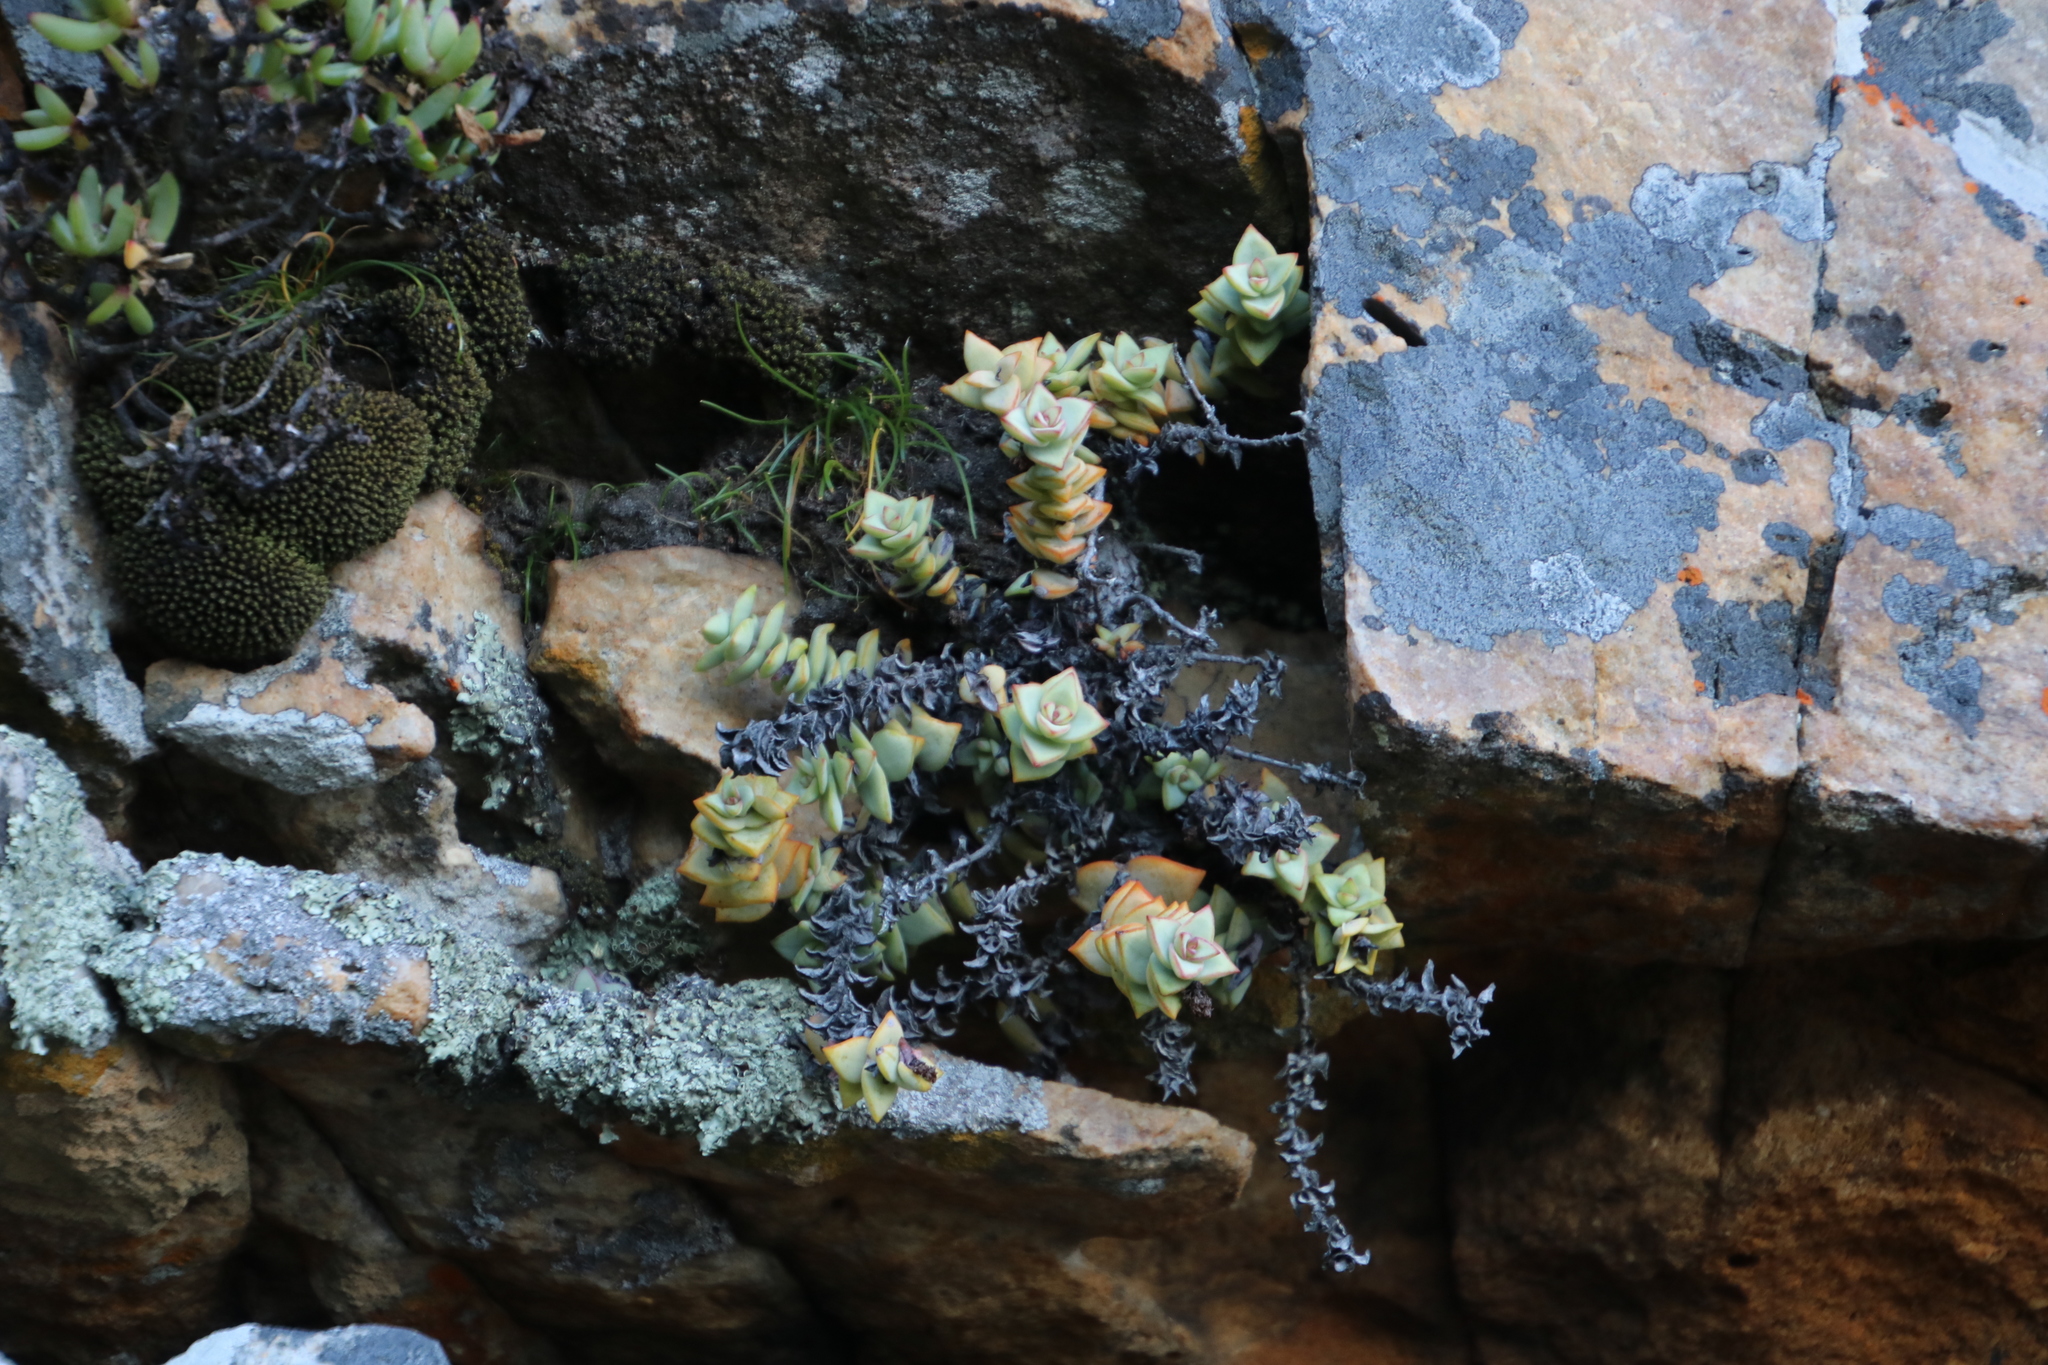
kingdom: Plantae
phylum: Tracheophyta
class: Magnoliopsida
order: Saxifragales
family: Crassulaceae
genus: Crassula
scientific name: Crassula rupestris
